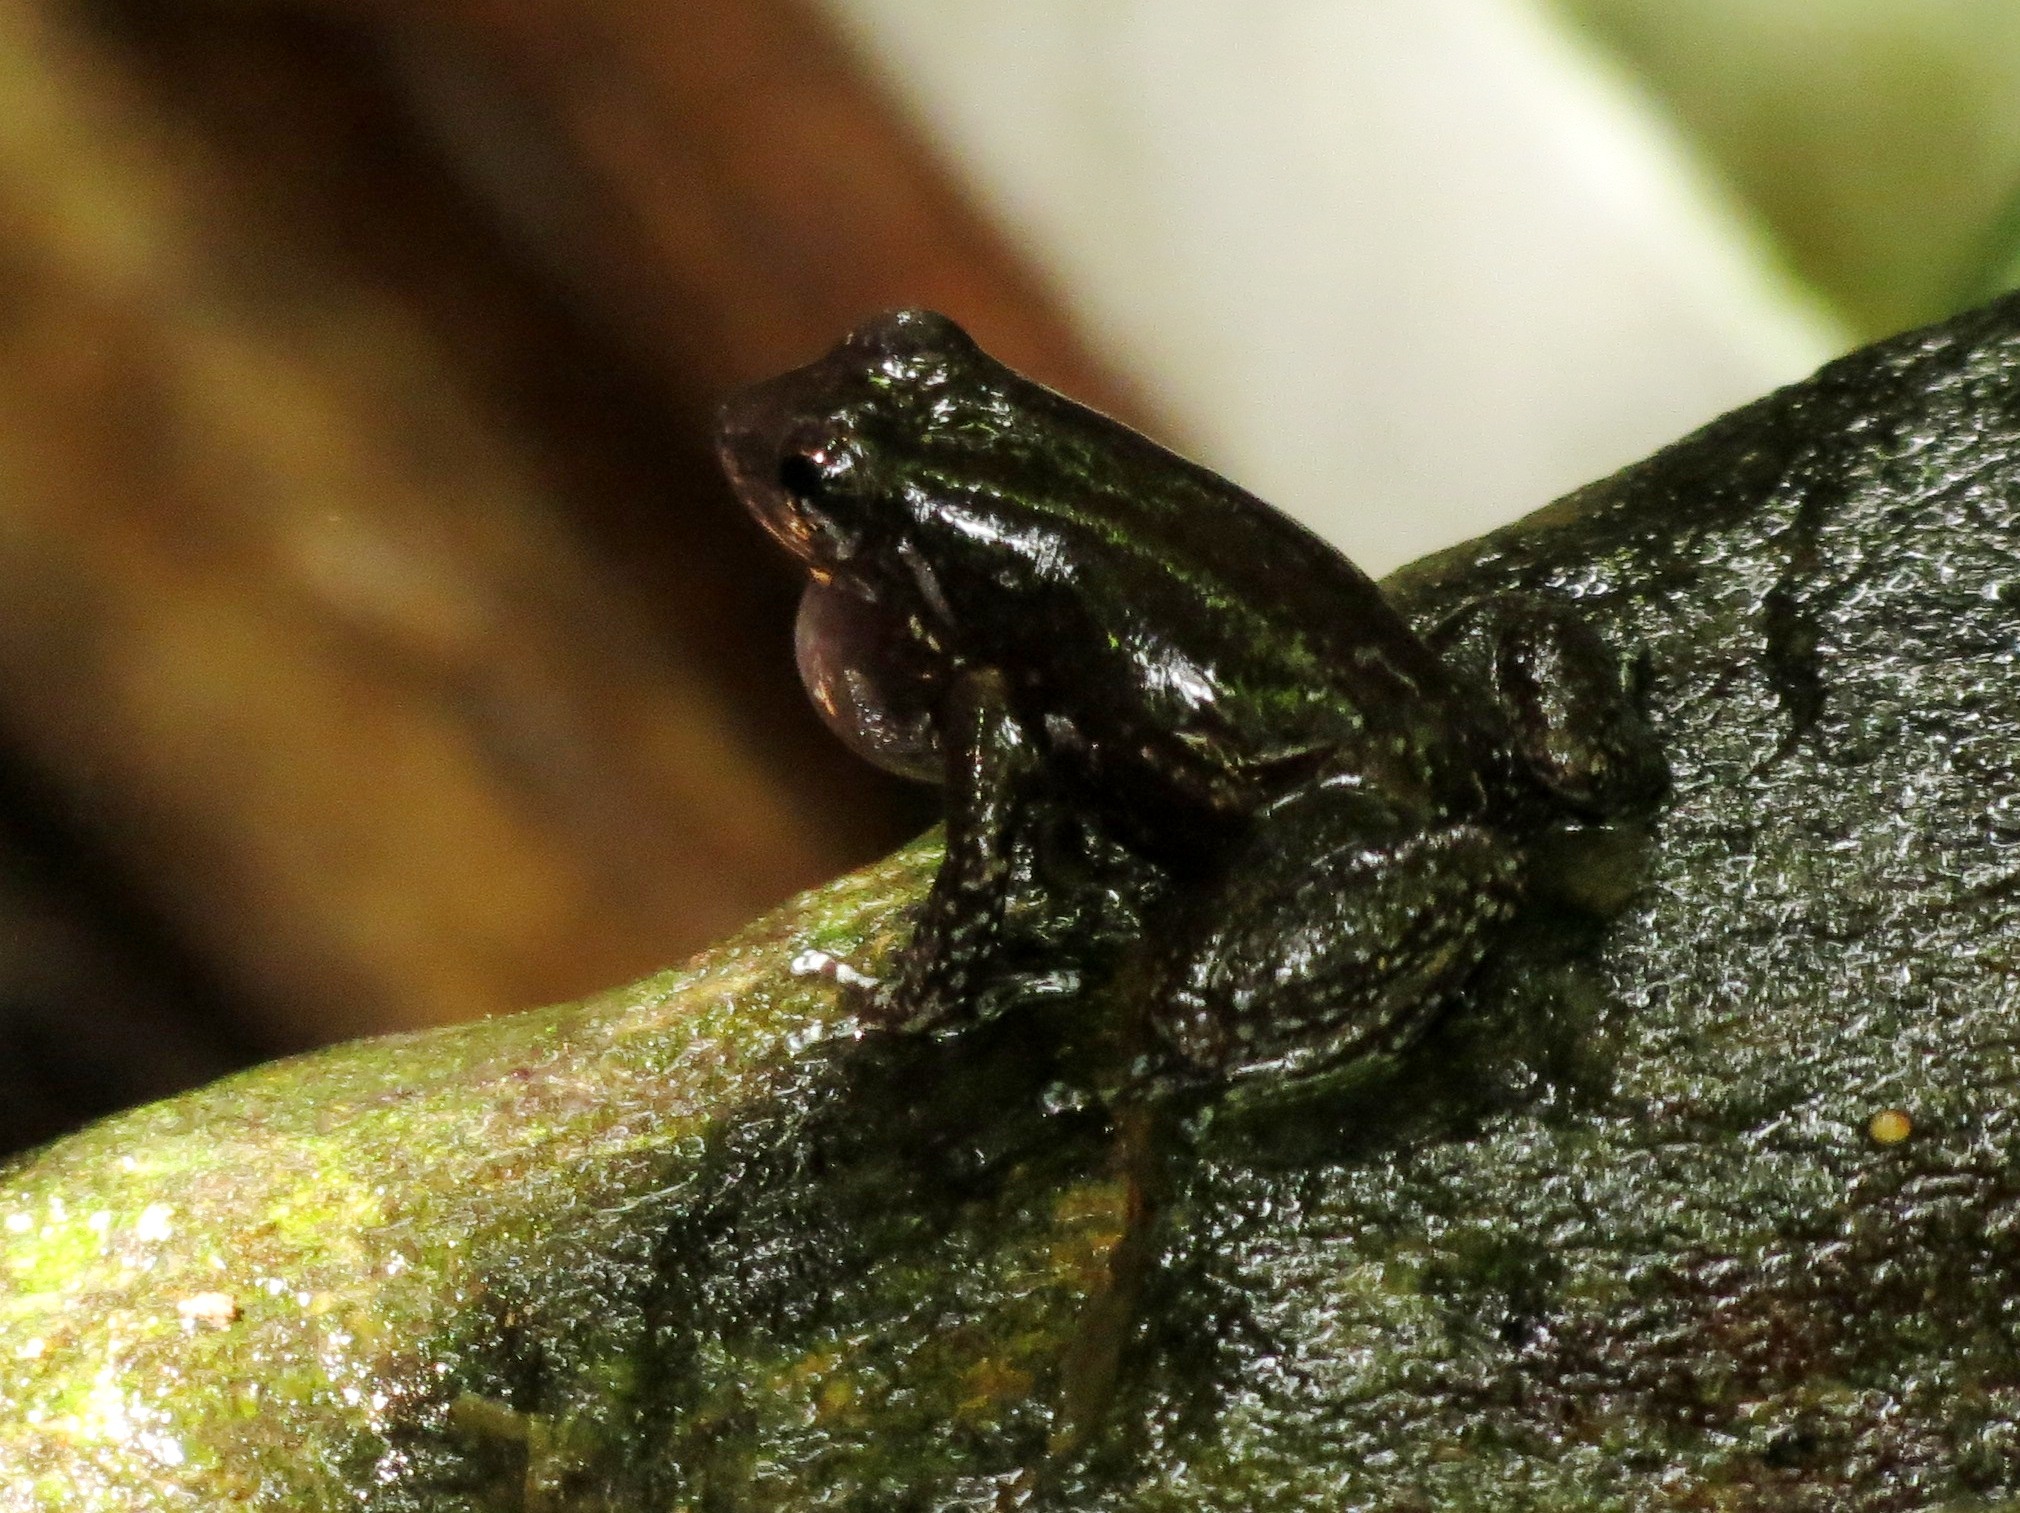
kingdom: Animalia
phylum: Chordata
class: Amphibia
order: Anura
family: Aromobatidae
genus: Mannophryne
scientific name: Mannophryne trinitatis
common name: Trinidad poison frog
